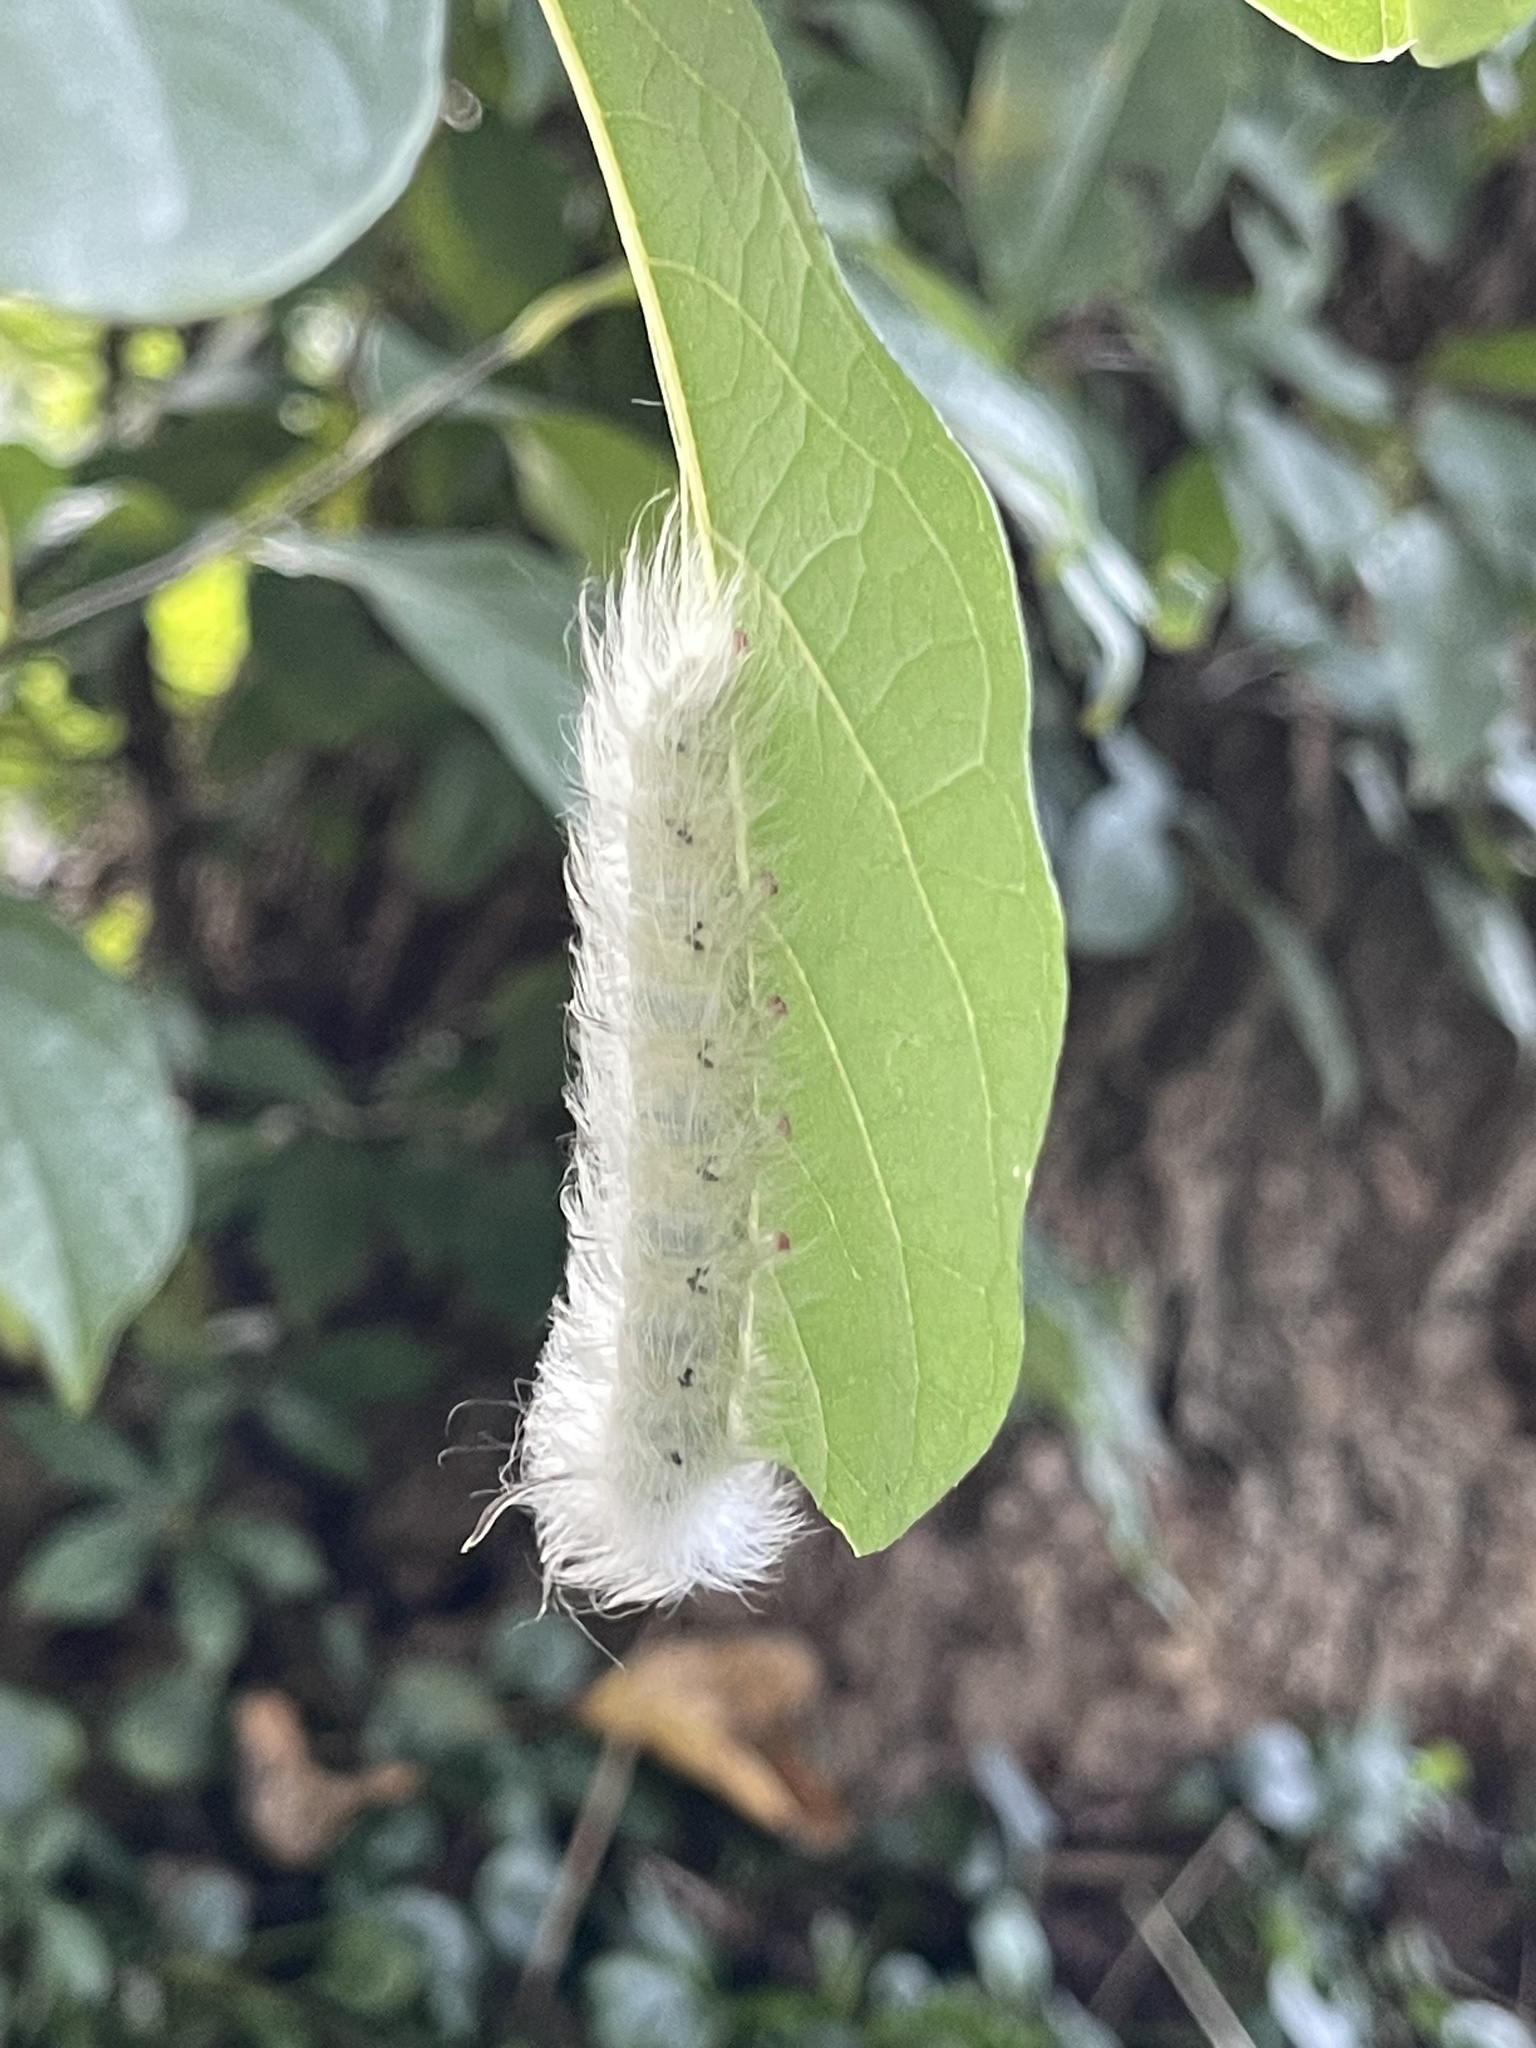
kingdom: Animalia
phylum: Arthropoda
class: Insecta
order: Lepidoptera
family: Apatelodidae
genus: Hygrochroa
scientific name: Hygrochroa Apatelodes torrefacta
